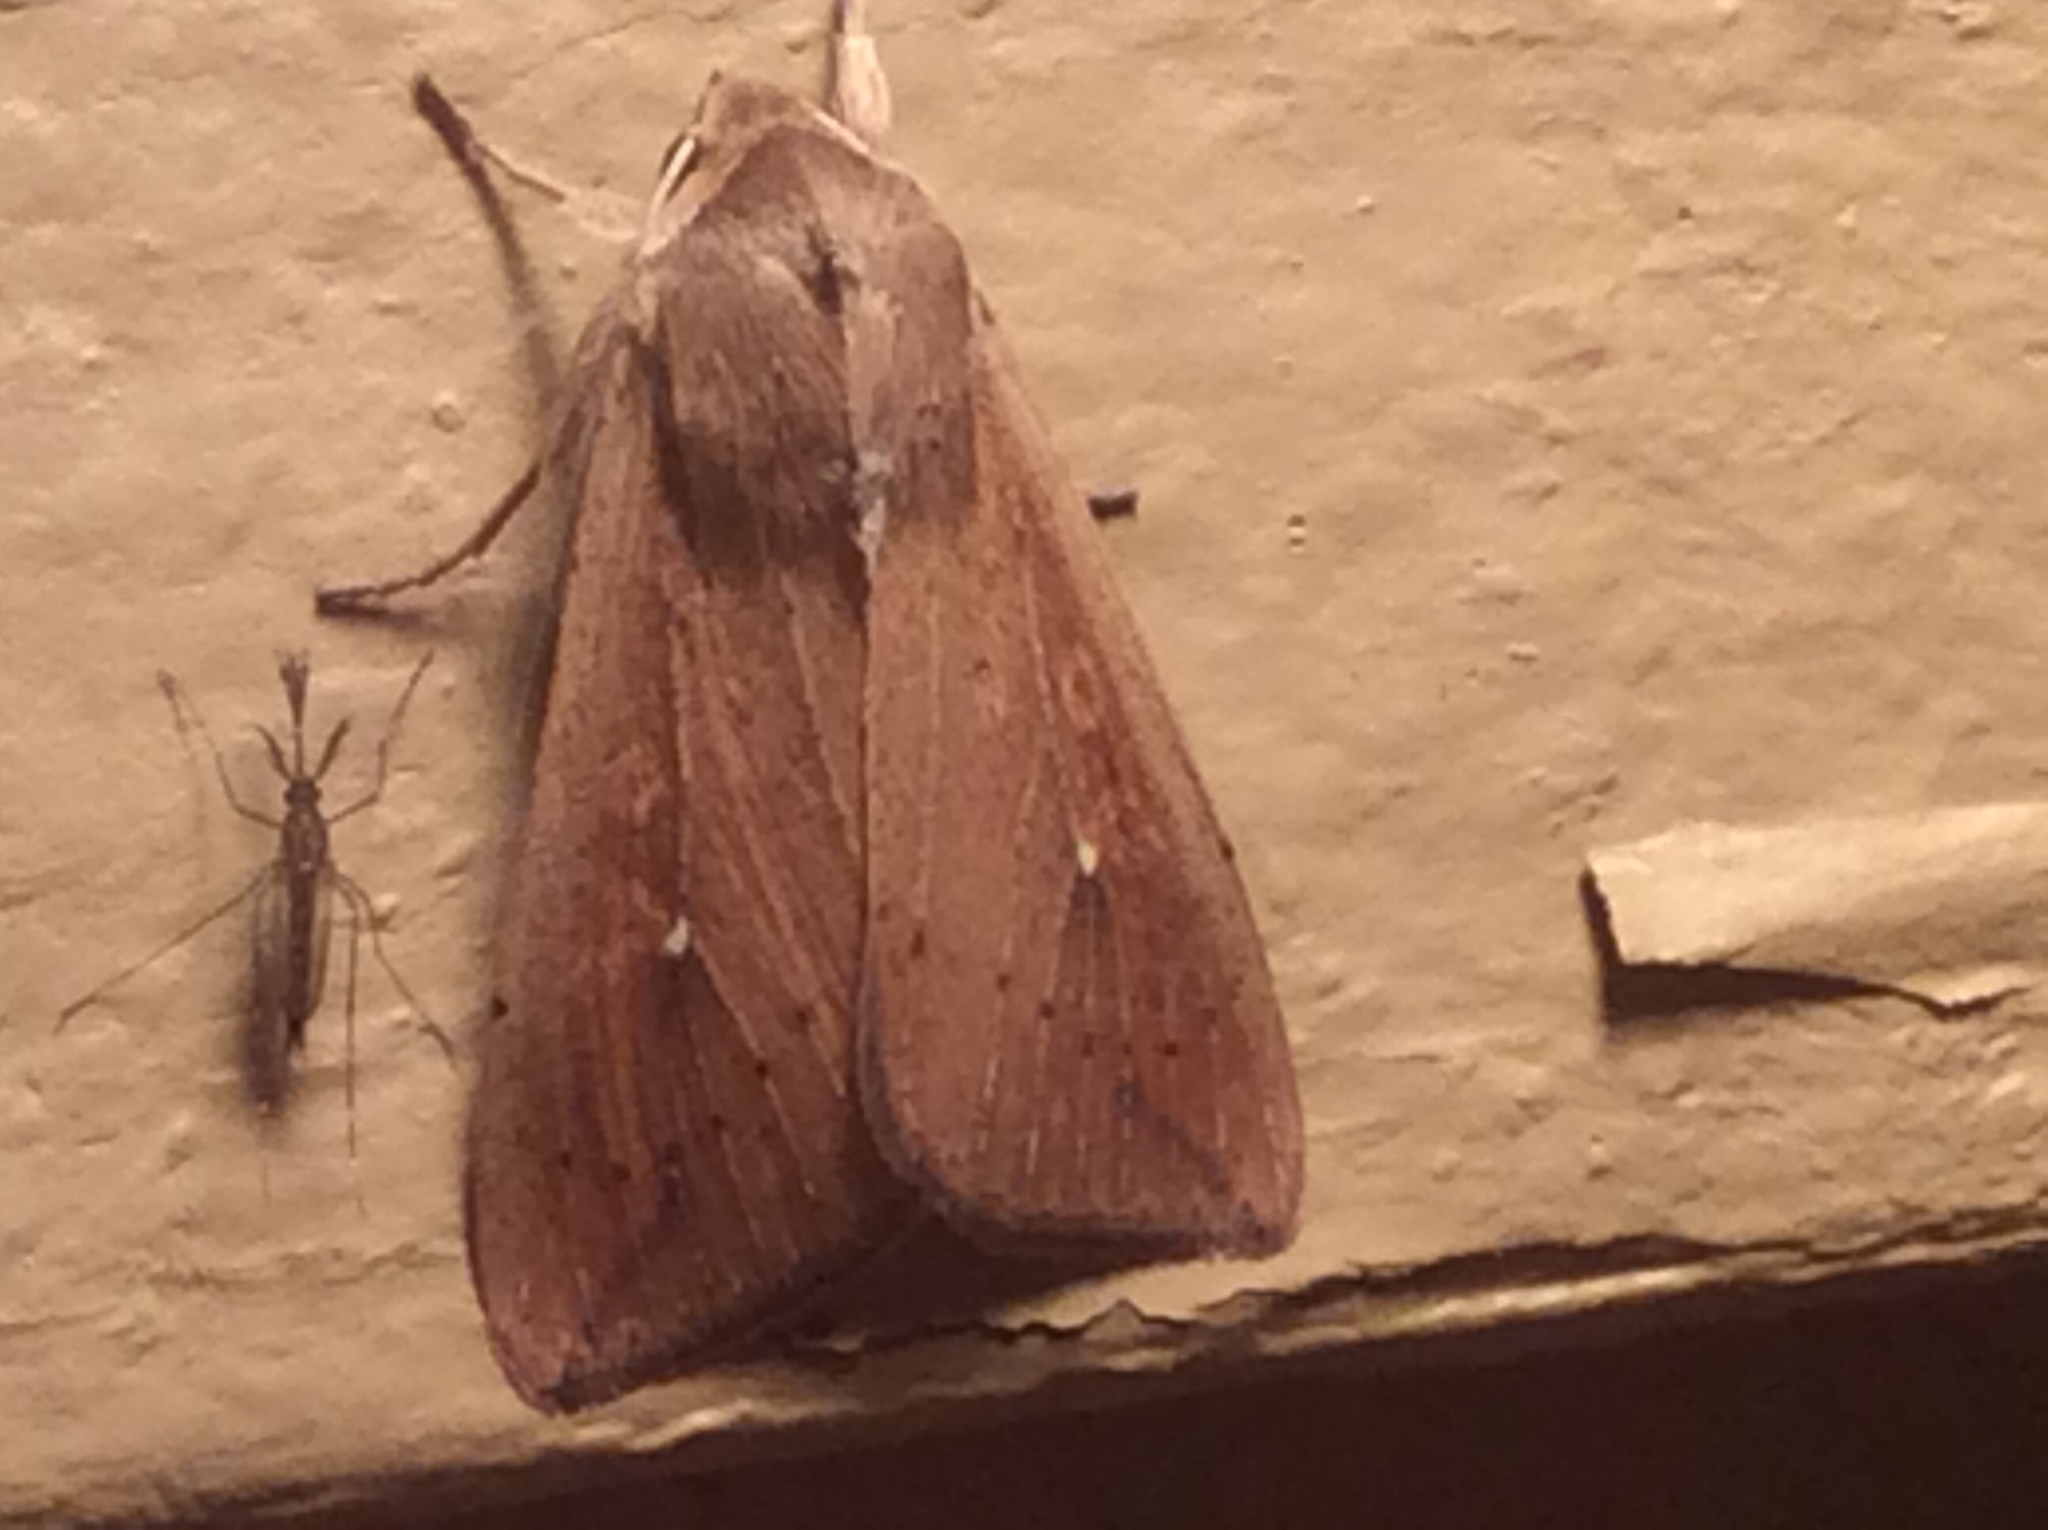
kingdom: Animalia
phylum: Arthropoda
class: Insecta
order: Lepidoptera
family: Noctuidae
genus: Mythimna
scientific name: Mythimna unipuncta
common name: White-speck
